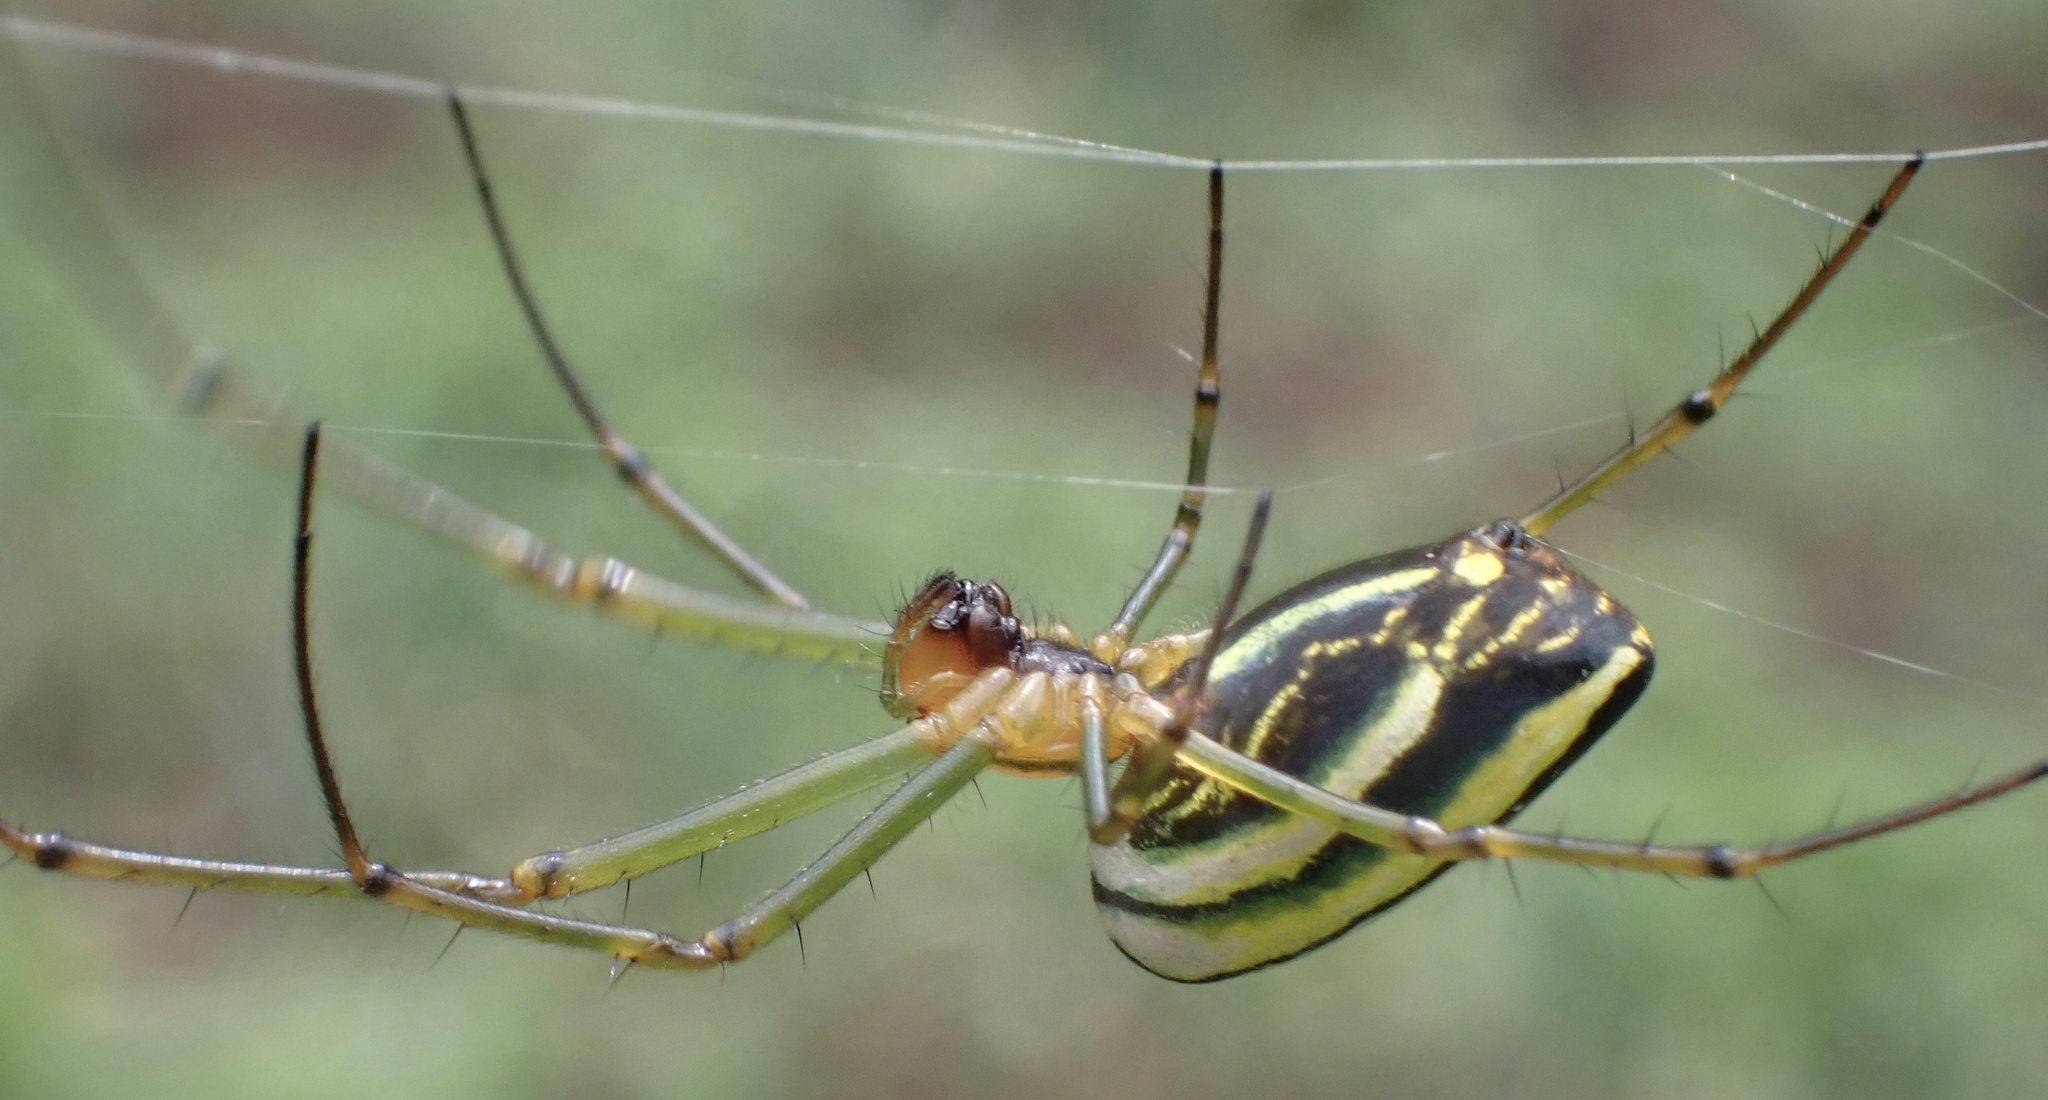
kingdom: Animalia
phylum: Arthropoda
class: Arachnida
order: Araneae
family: Tetragnathidae
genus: Leucauge
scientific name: Leucauge celebesiana
